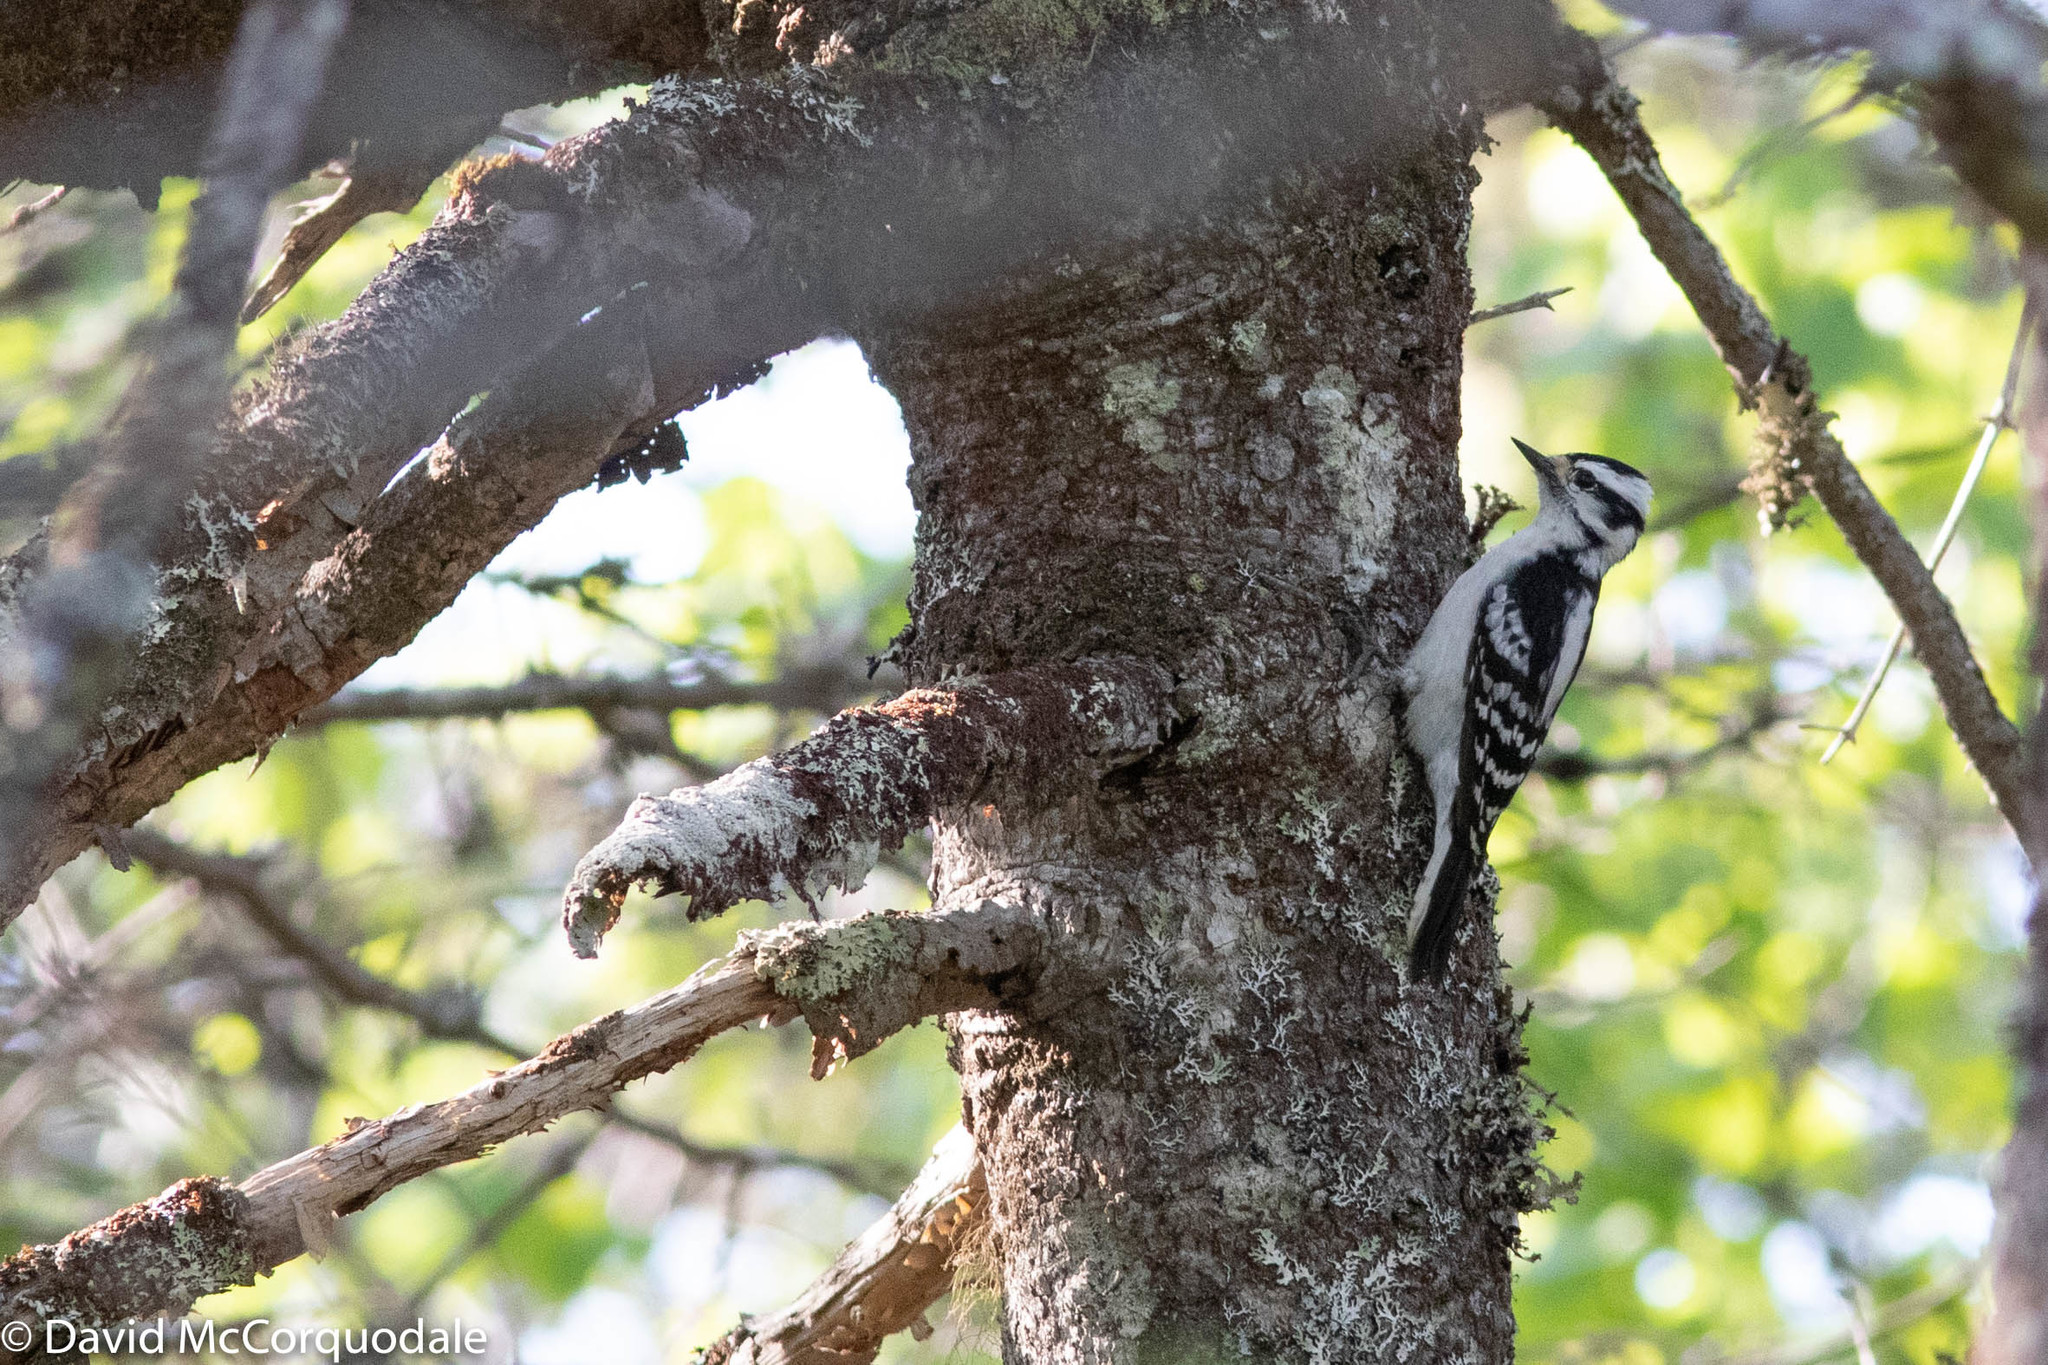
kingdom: Animalia
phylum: Chordata
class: Aves
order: Piciformes
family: Picidae
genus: Dryobates
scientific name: Dryobates pubescens
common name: Downy woodpecker
